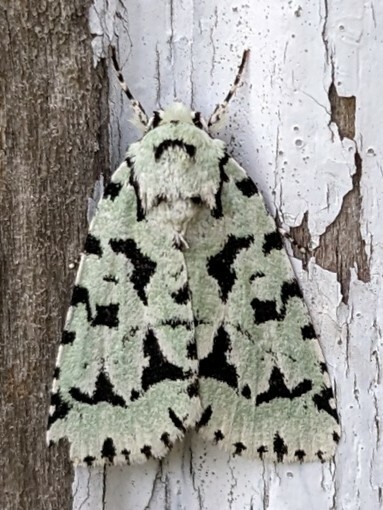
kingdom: Animalia
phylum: Arthropoda
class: Insecta
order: Lepidoptera
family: Noctuidae
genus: Acronicta
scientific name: Acronicta fallax
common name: Green marvel
